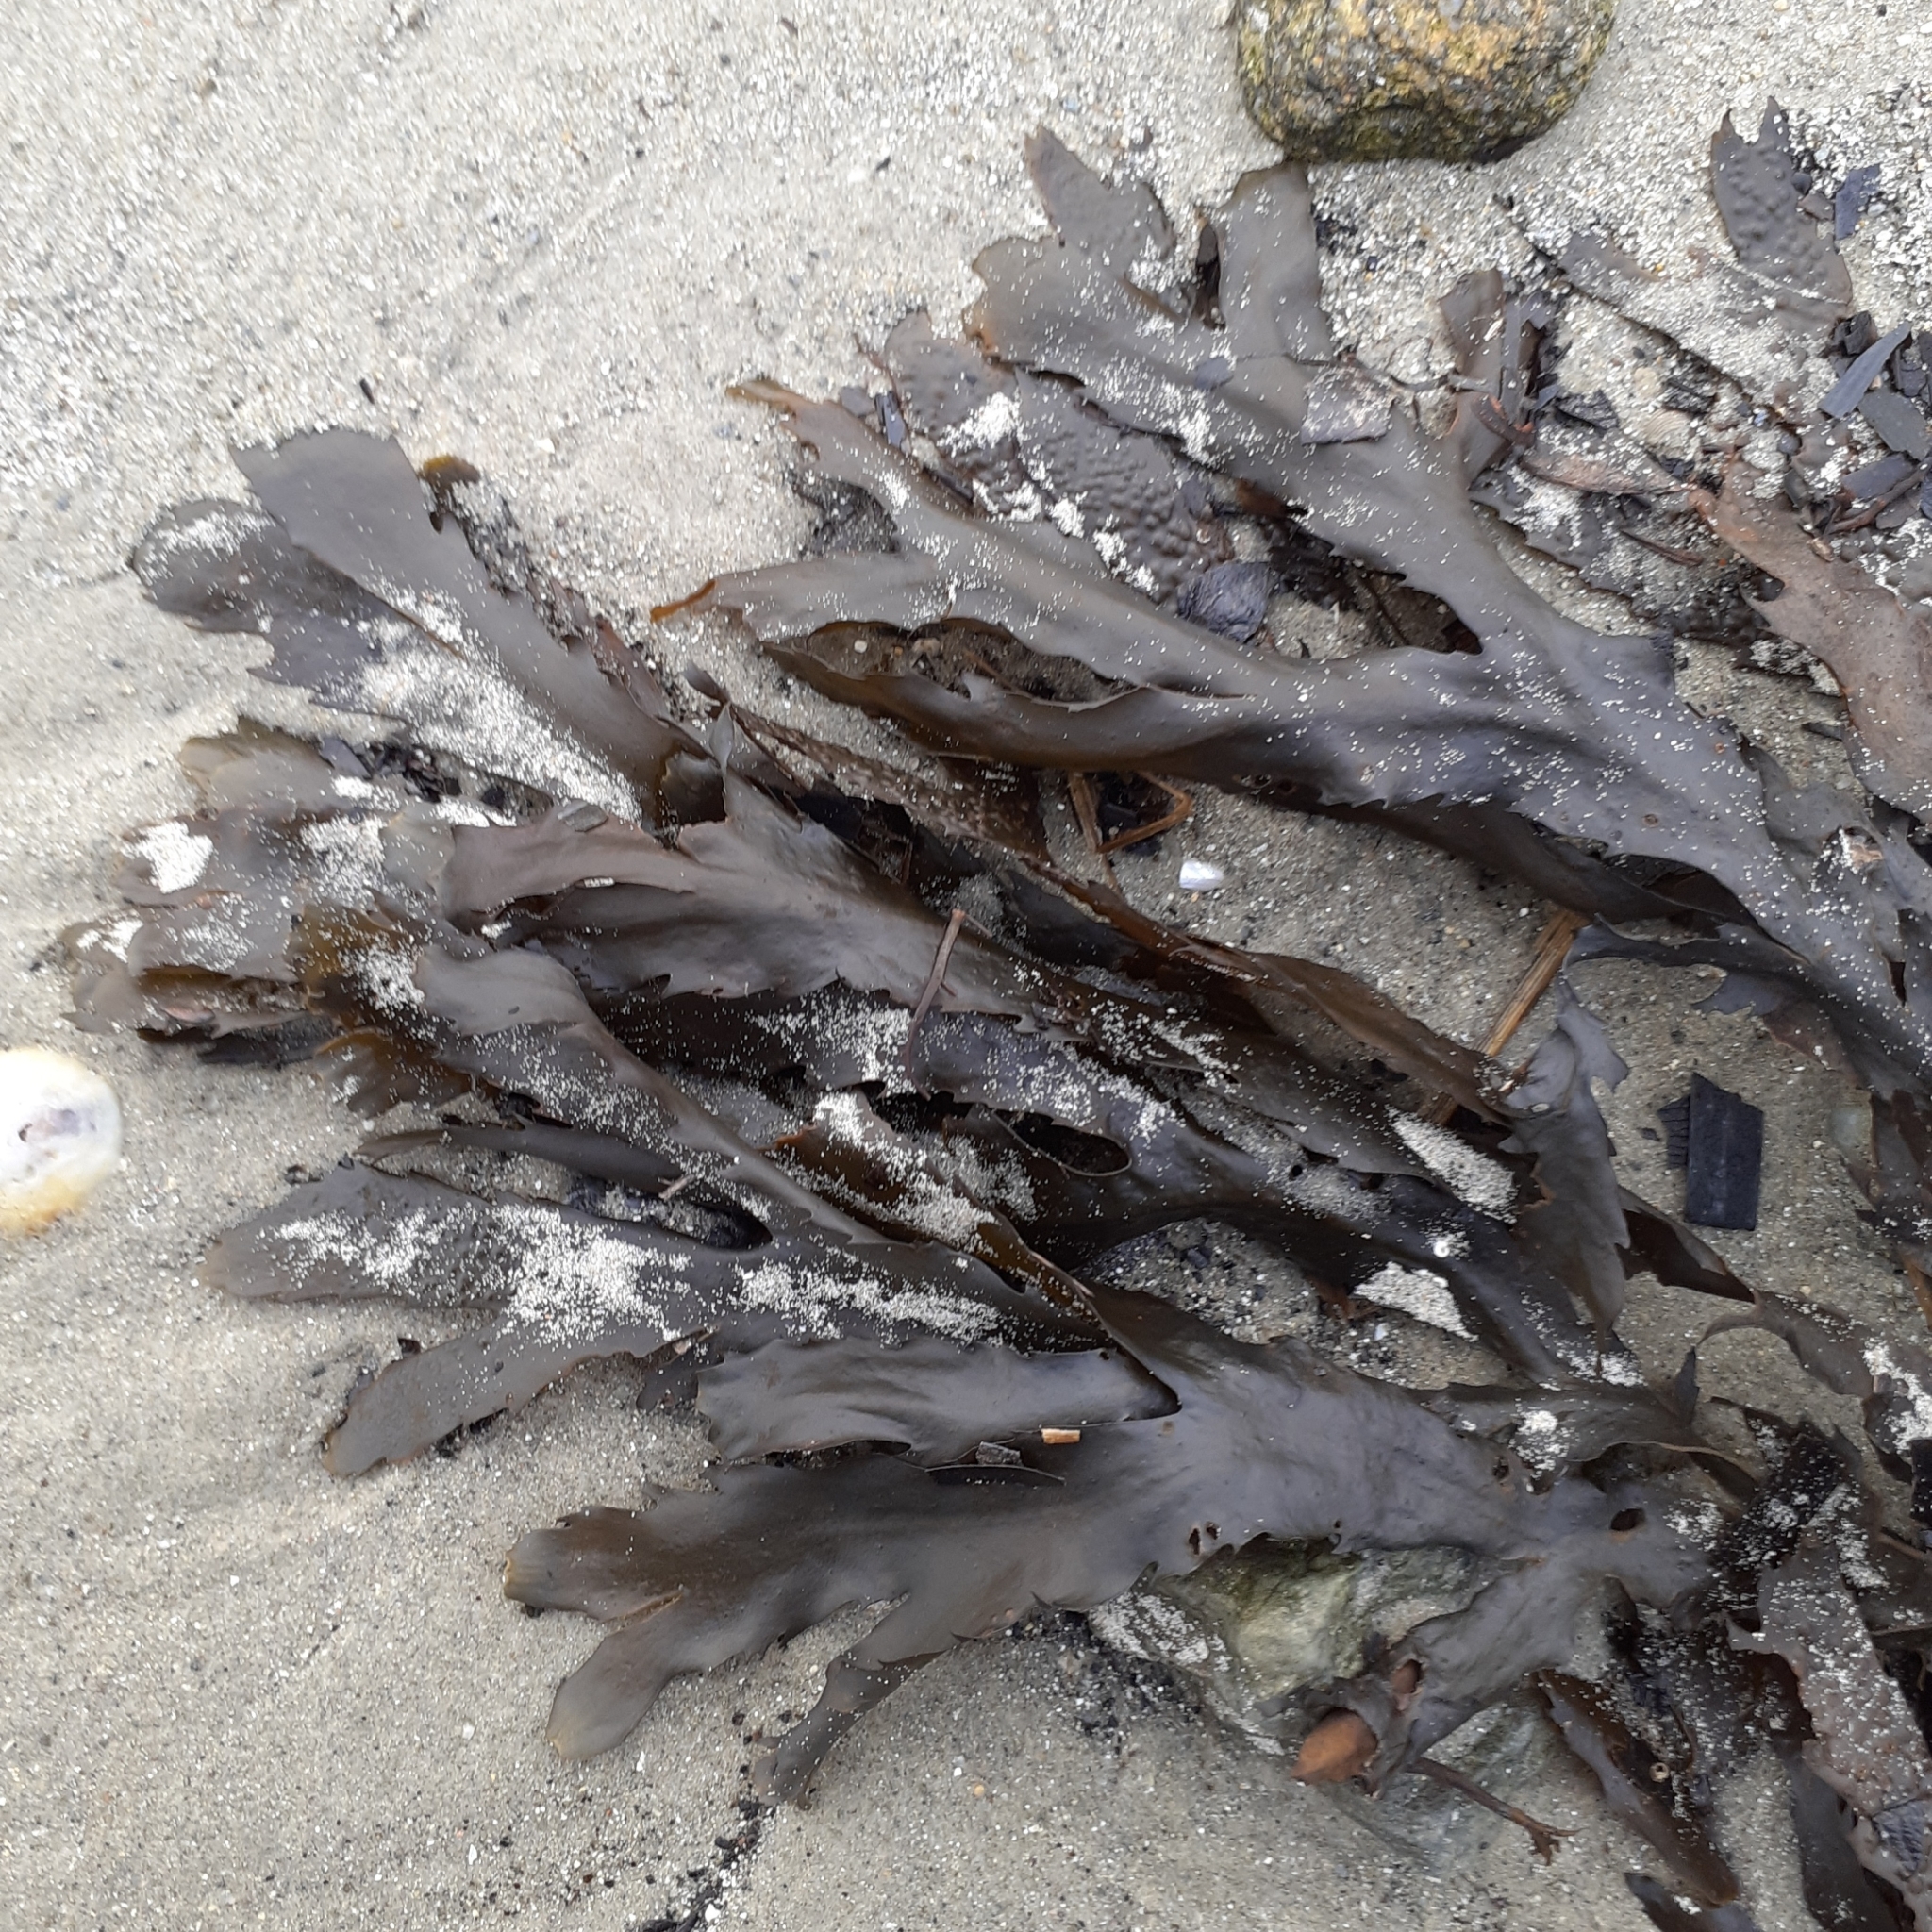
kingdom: Chromista
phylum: Ochrophyta
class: Phaeophyceae
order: Fucales
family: Fucaceae
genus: Fucus
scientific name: Fucus serratus
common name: Toothed wrack
